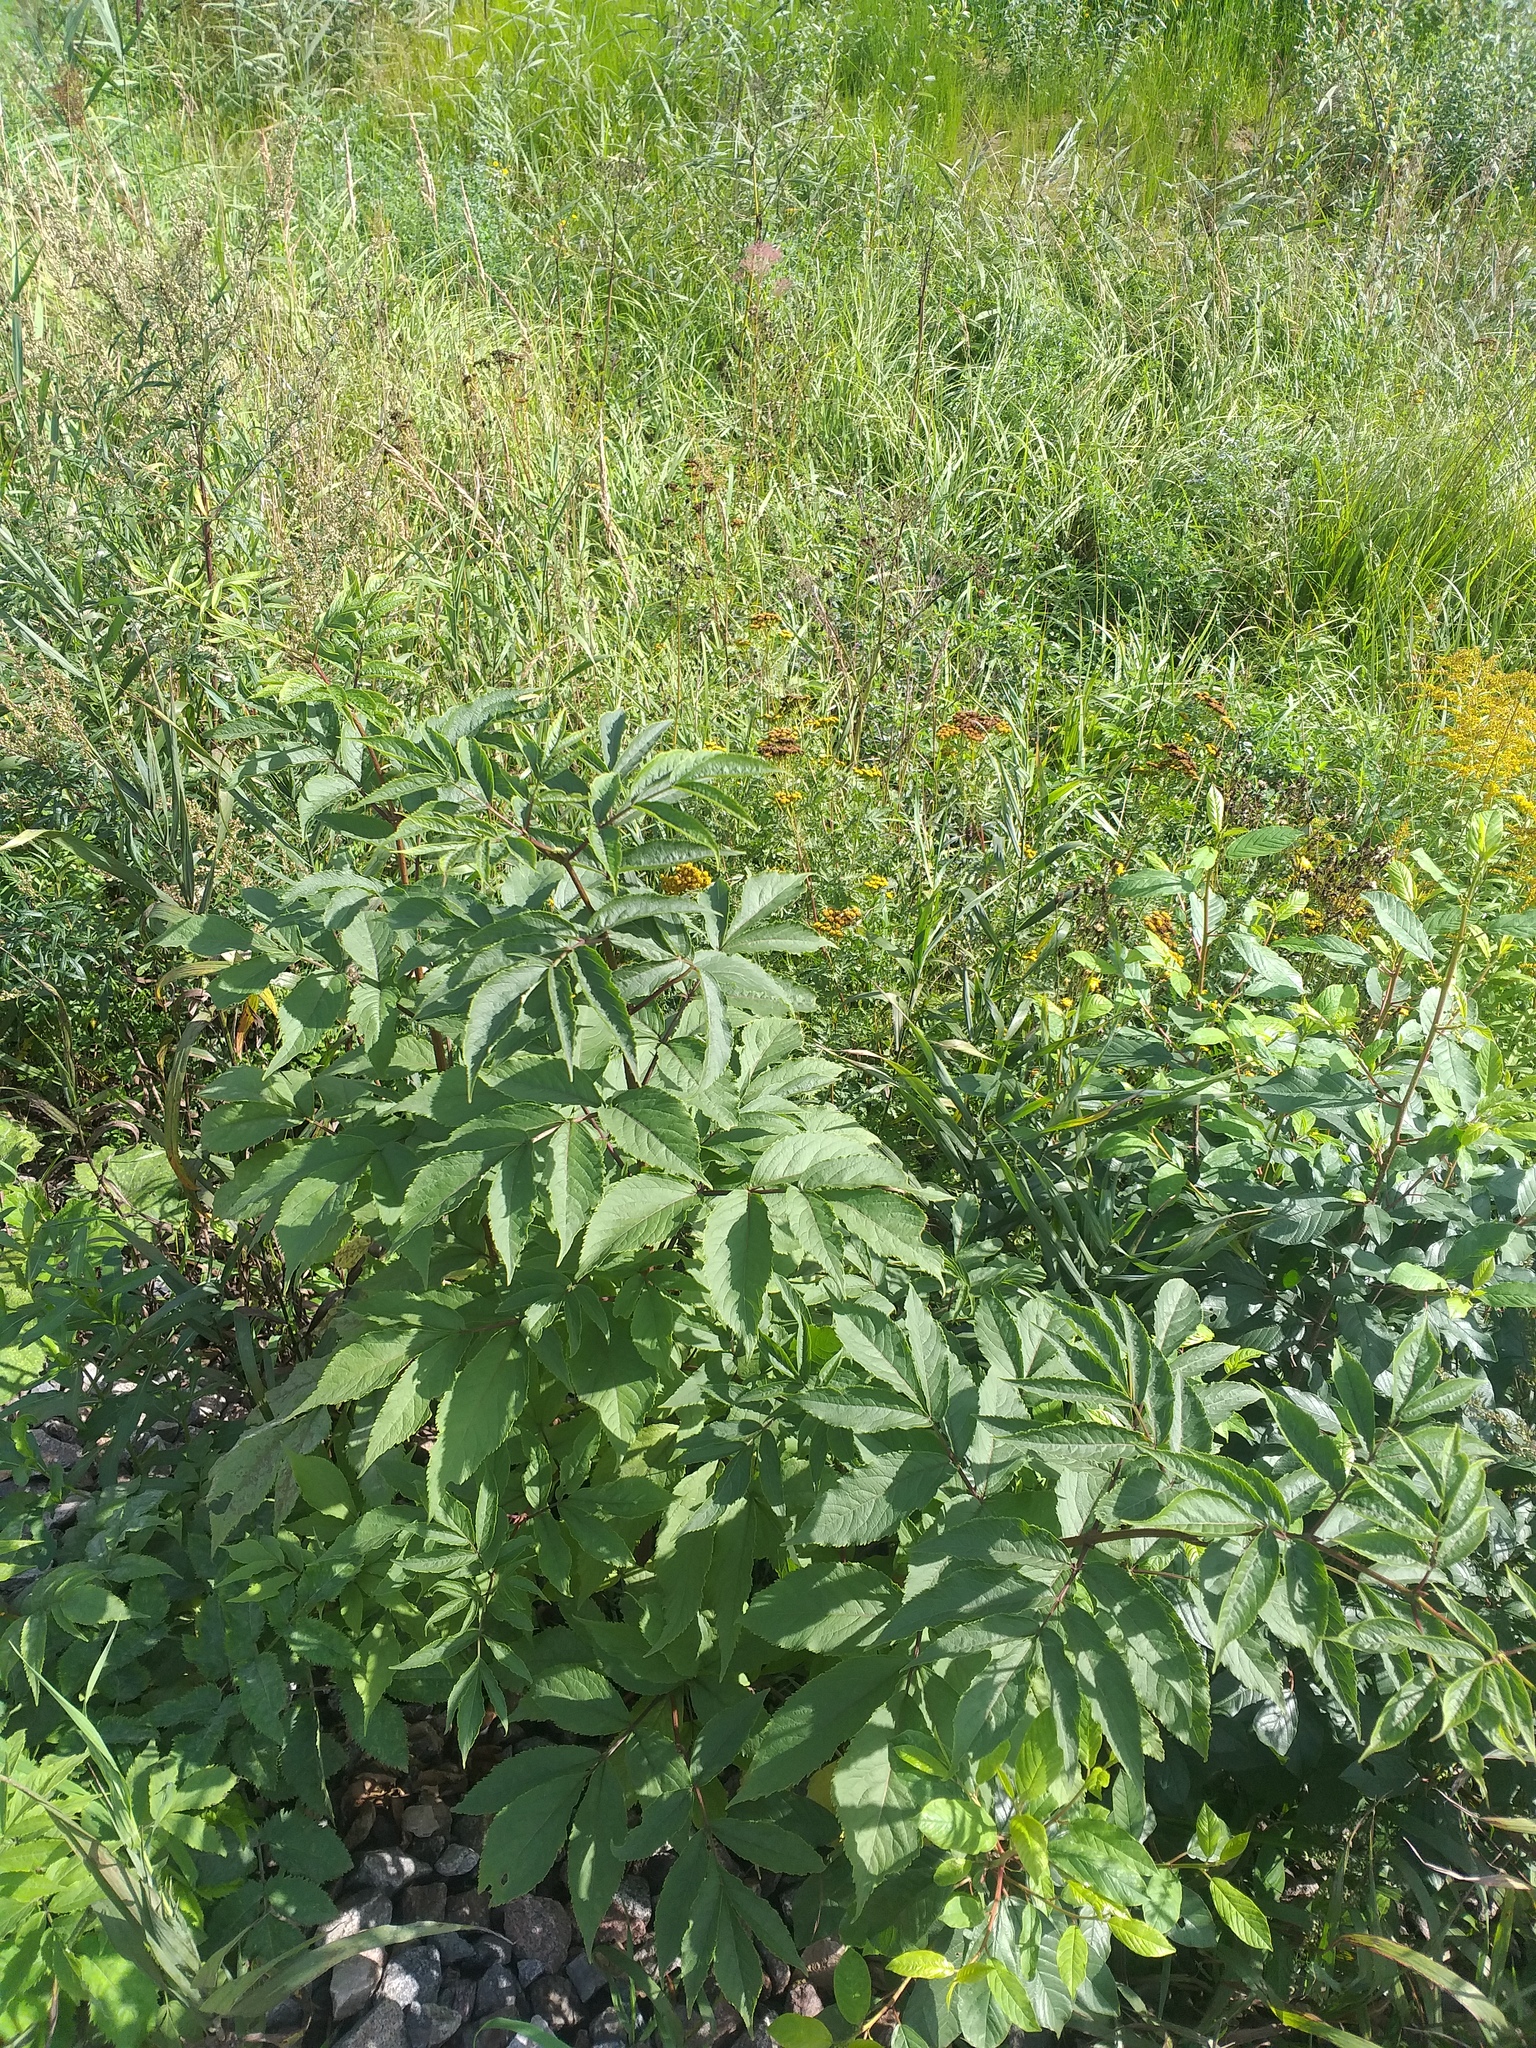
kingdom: Plantae
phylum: Tracheophyta
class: Magnoliopsida
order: Dipsacales
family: Viburnaceae
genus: Sambucus
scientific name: Sambucus racemosa
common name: Red-berried elder
